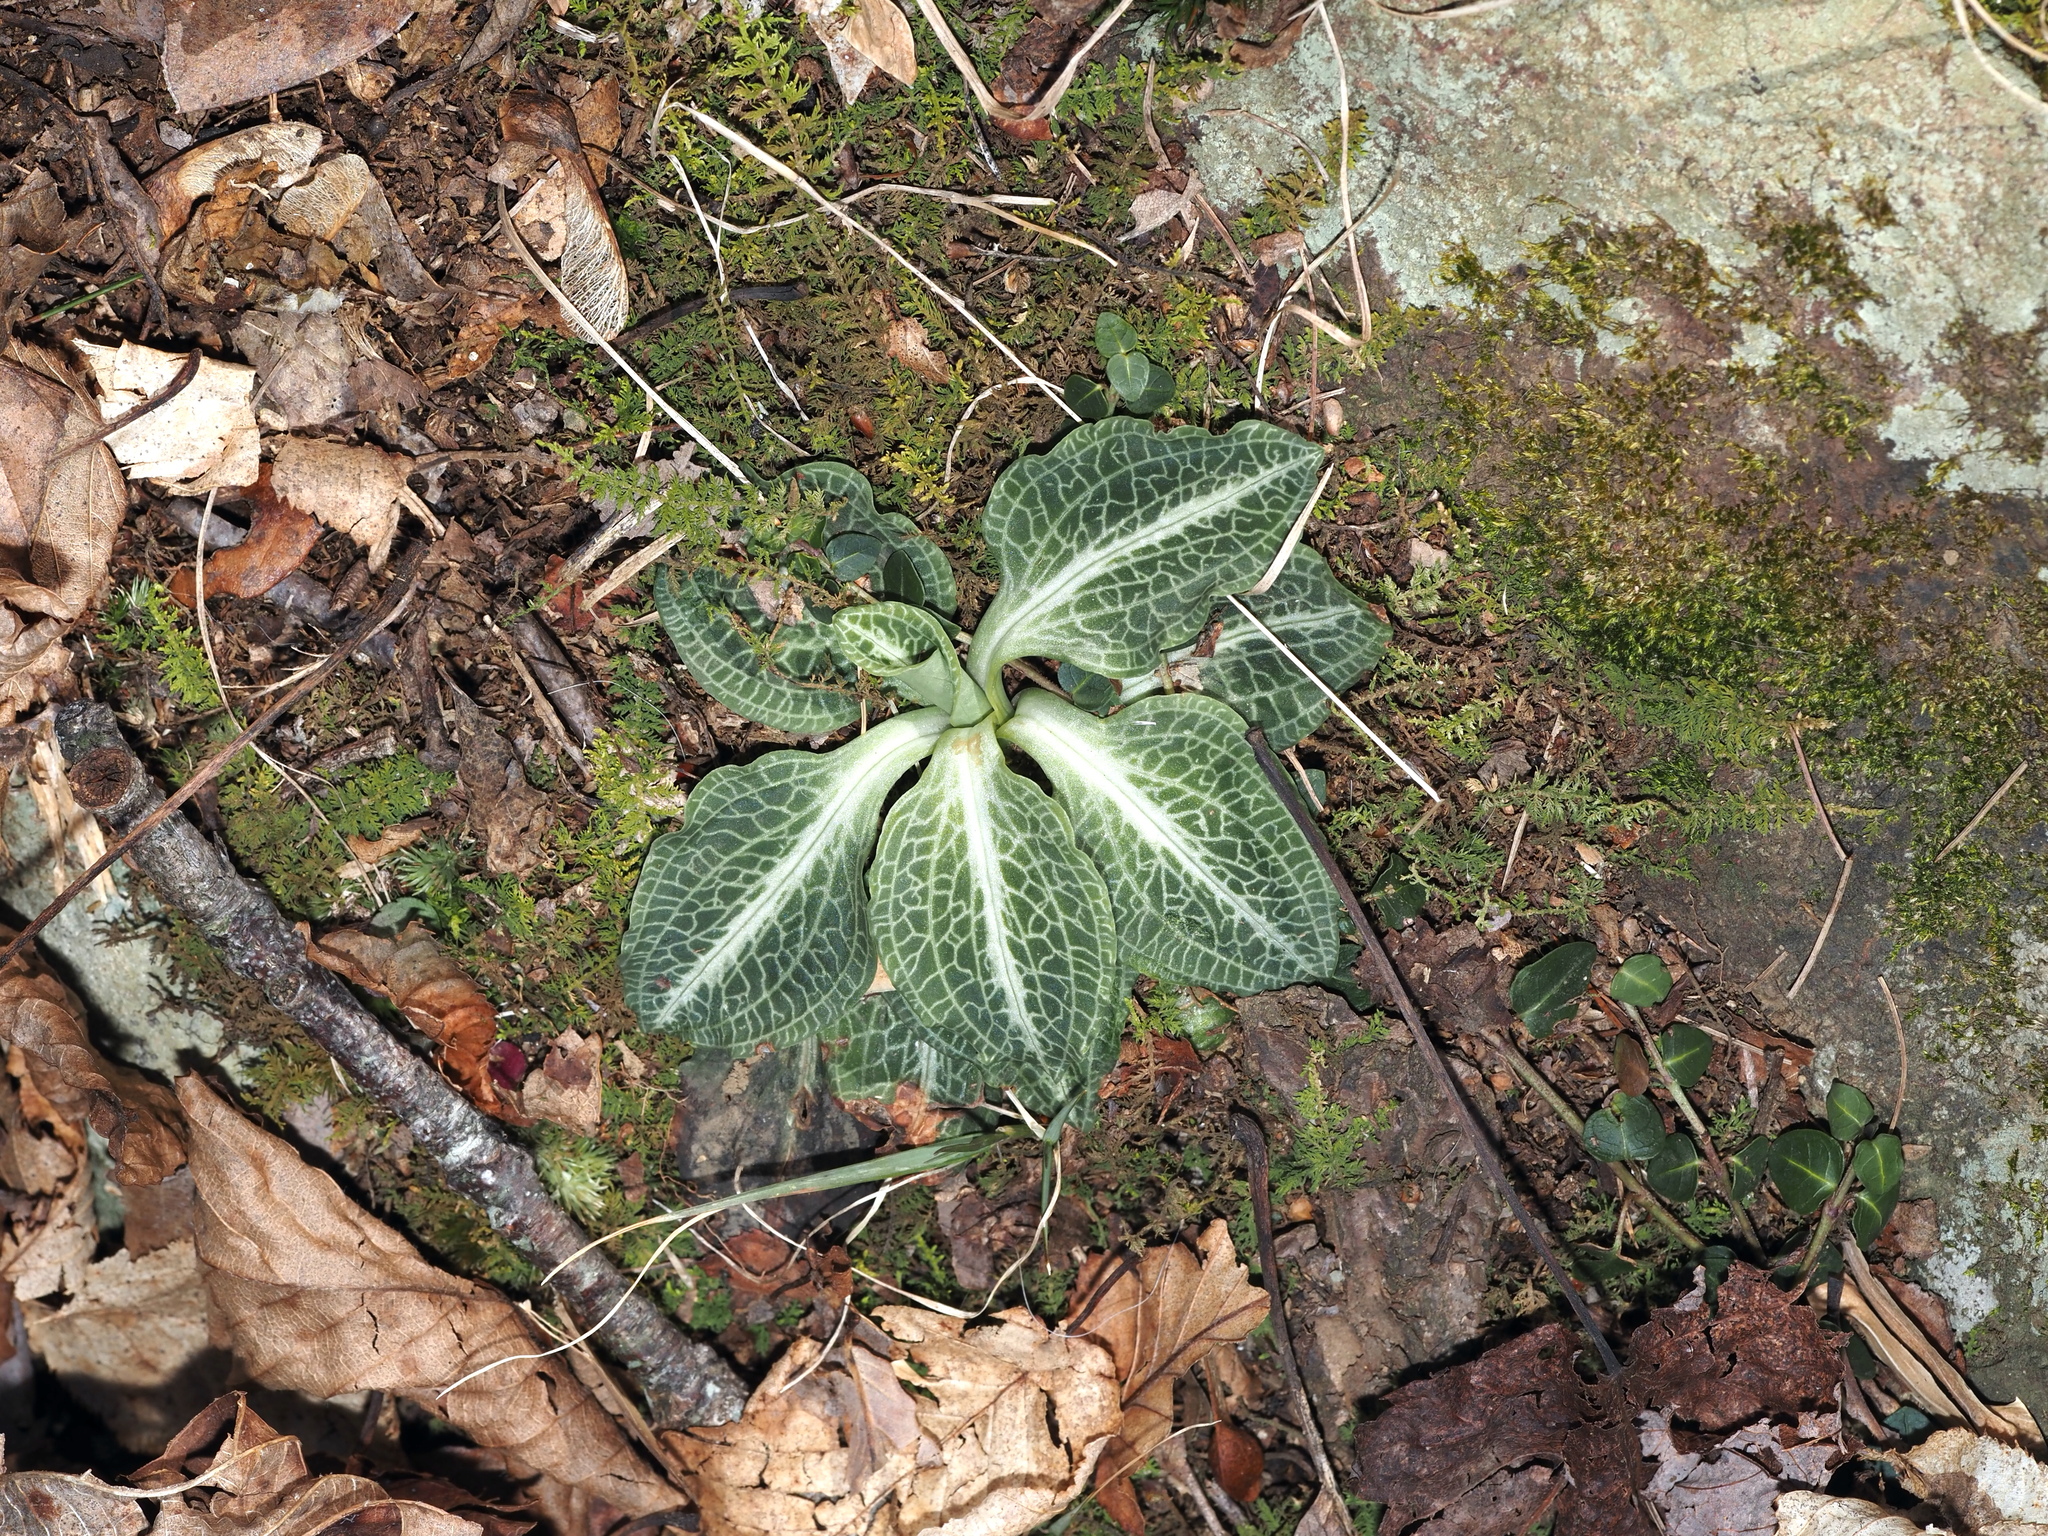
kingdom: Plantae
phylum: Tracheophyta
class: Liliopsida
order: Asparagales
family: Orchidaceae
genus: Goodyera
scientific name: Goodyera pubescens
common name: Downy rattlesnake-plantain
